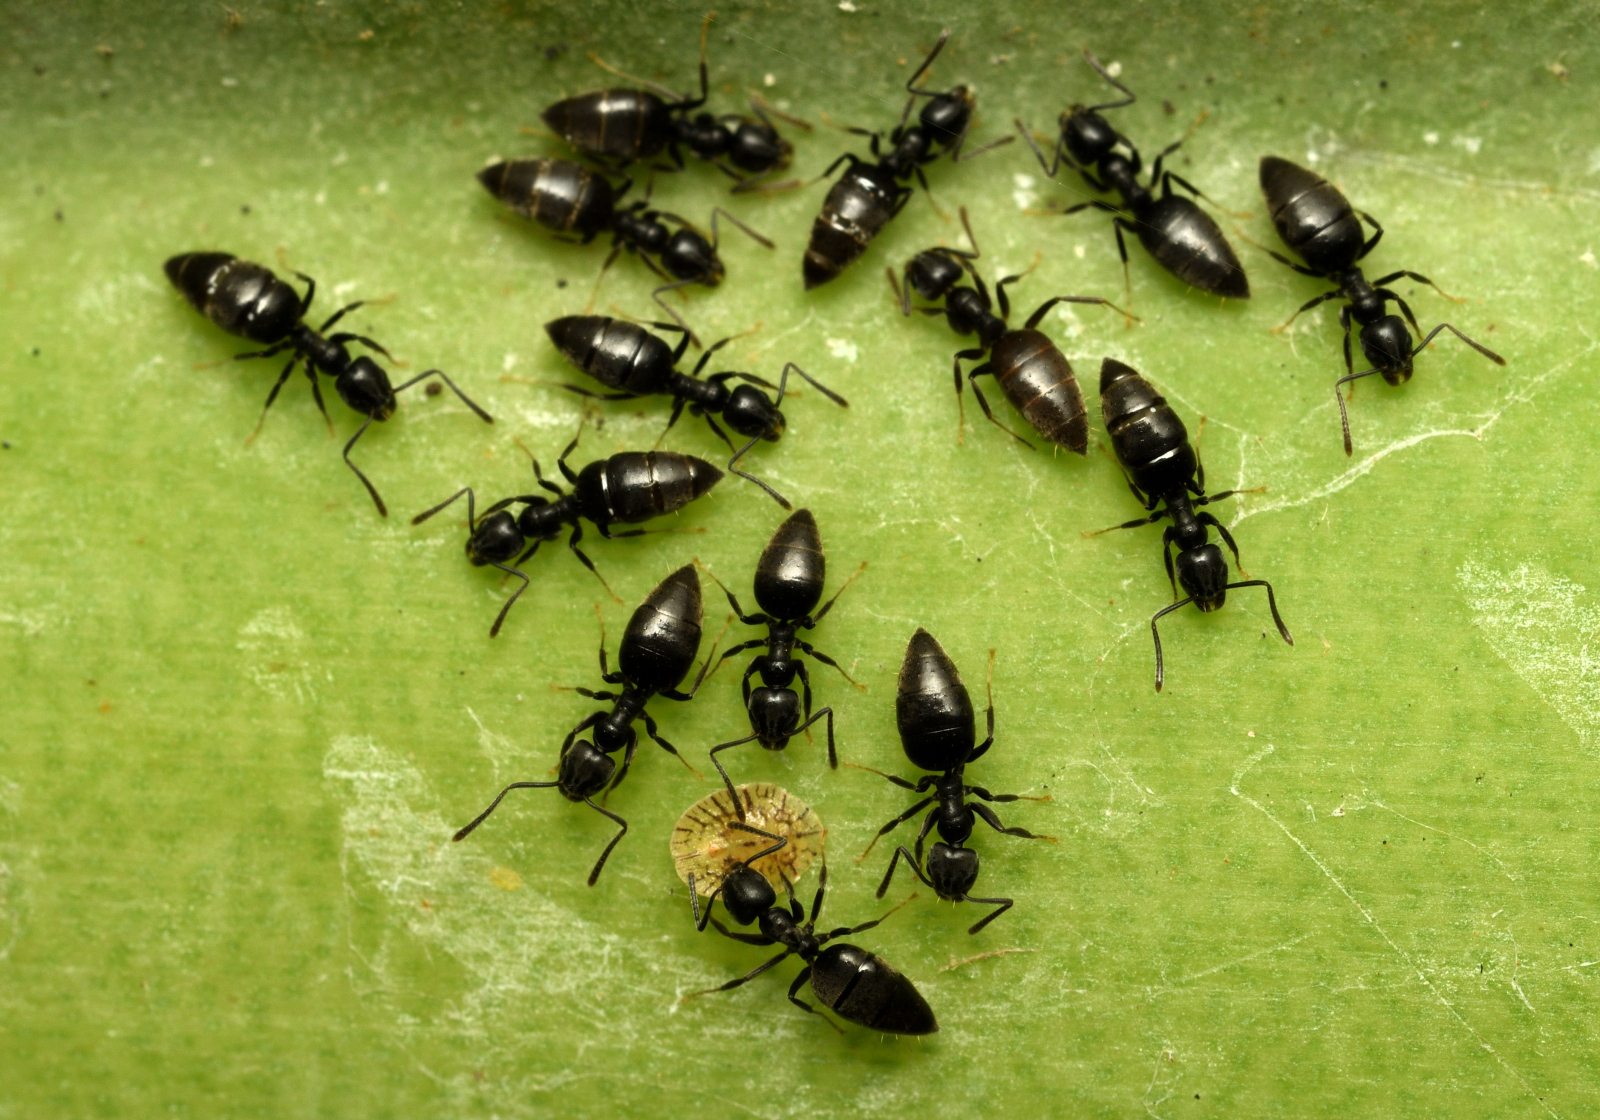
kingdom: Animalia
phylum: Arthropoda
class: Insecta
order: Hymenoptera
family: Formicidae
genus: Technomyrmex
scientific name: Technomyrmex albipes
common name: Ant
